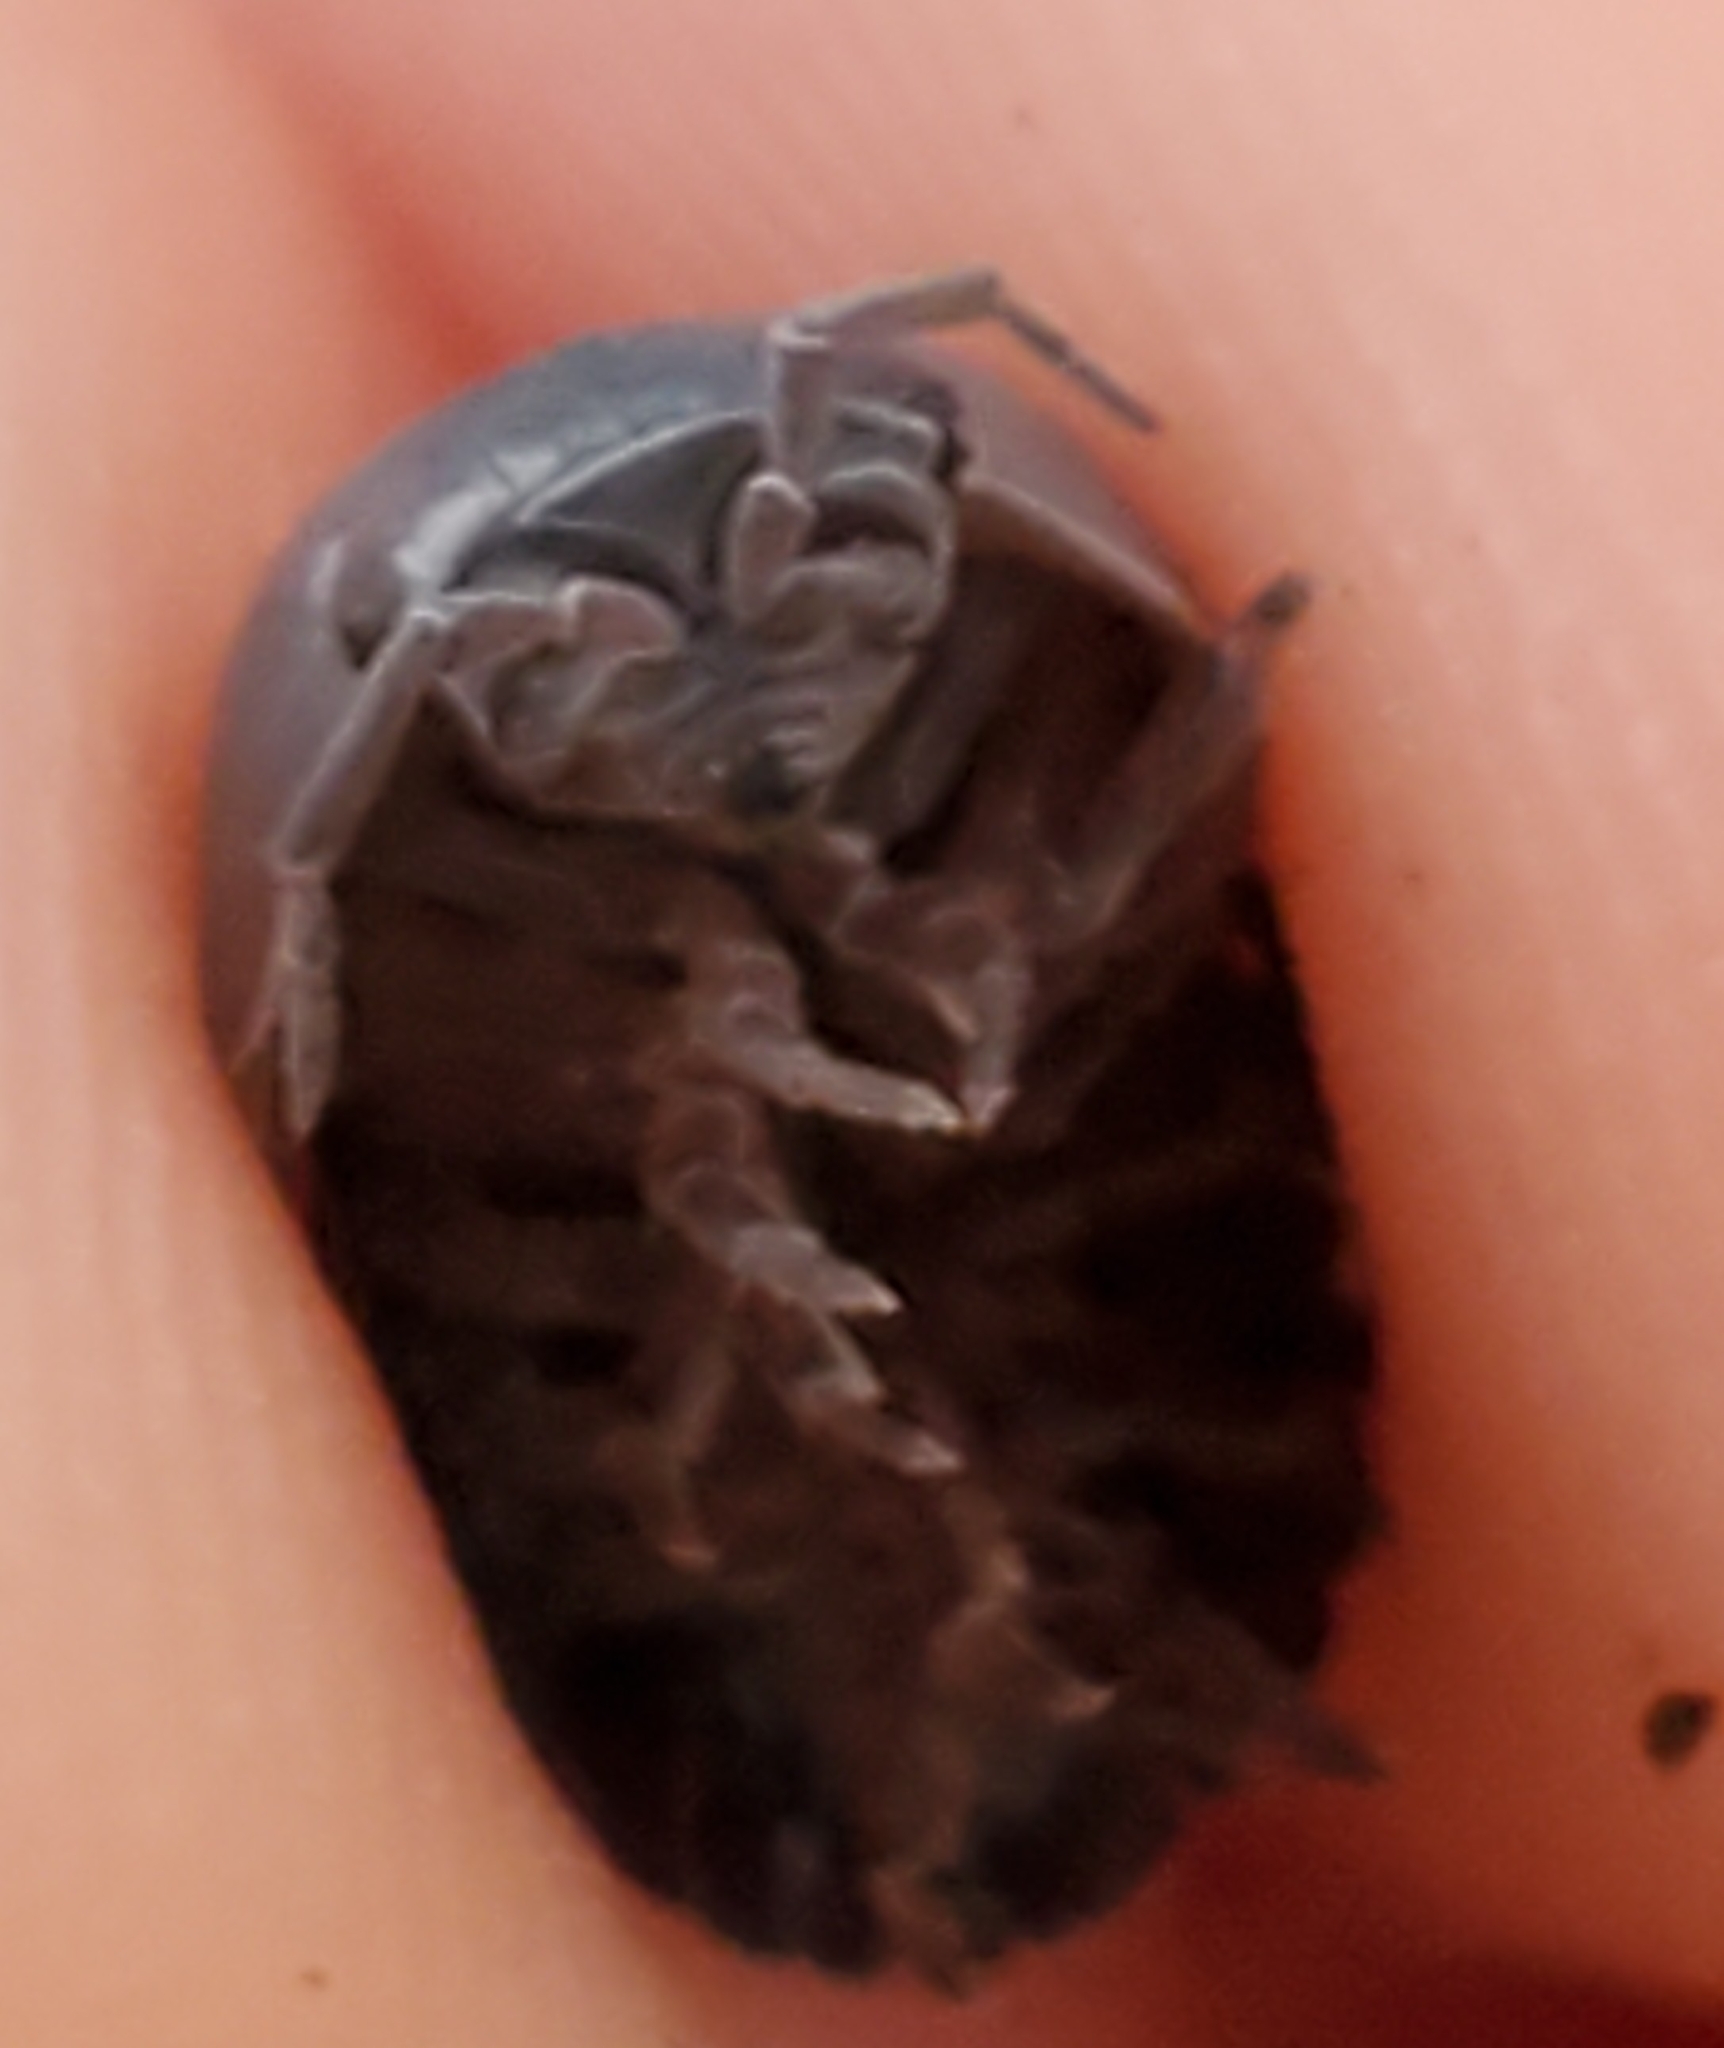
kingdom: Animalia
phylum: Arthropoda
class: Malacostraca
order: Isopoda
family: Armadillidiidae
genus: Armadillidium
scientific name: Armadillidium vulgare
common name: Common pill woodlouse
